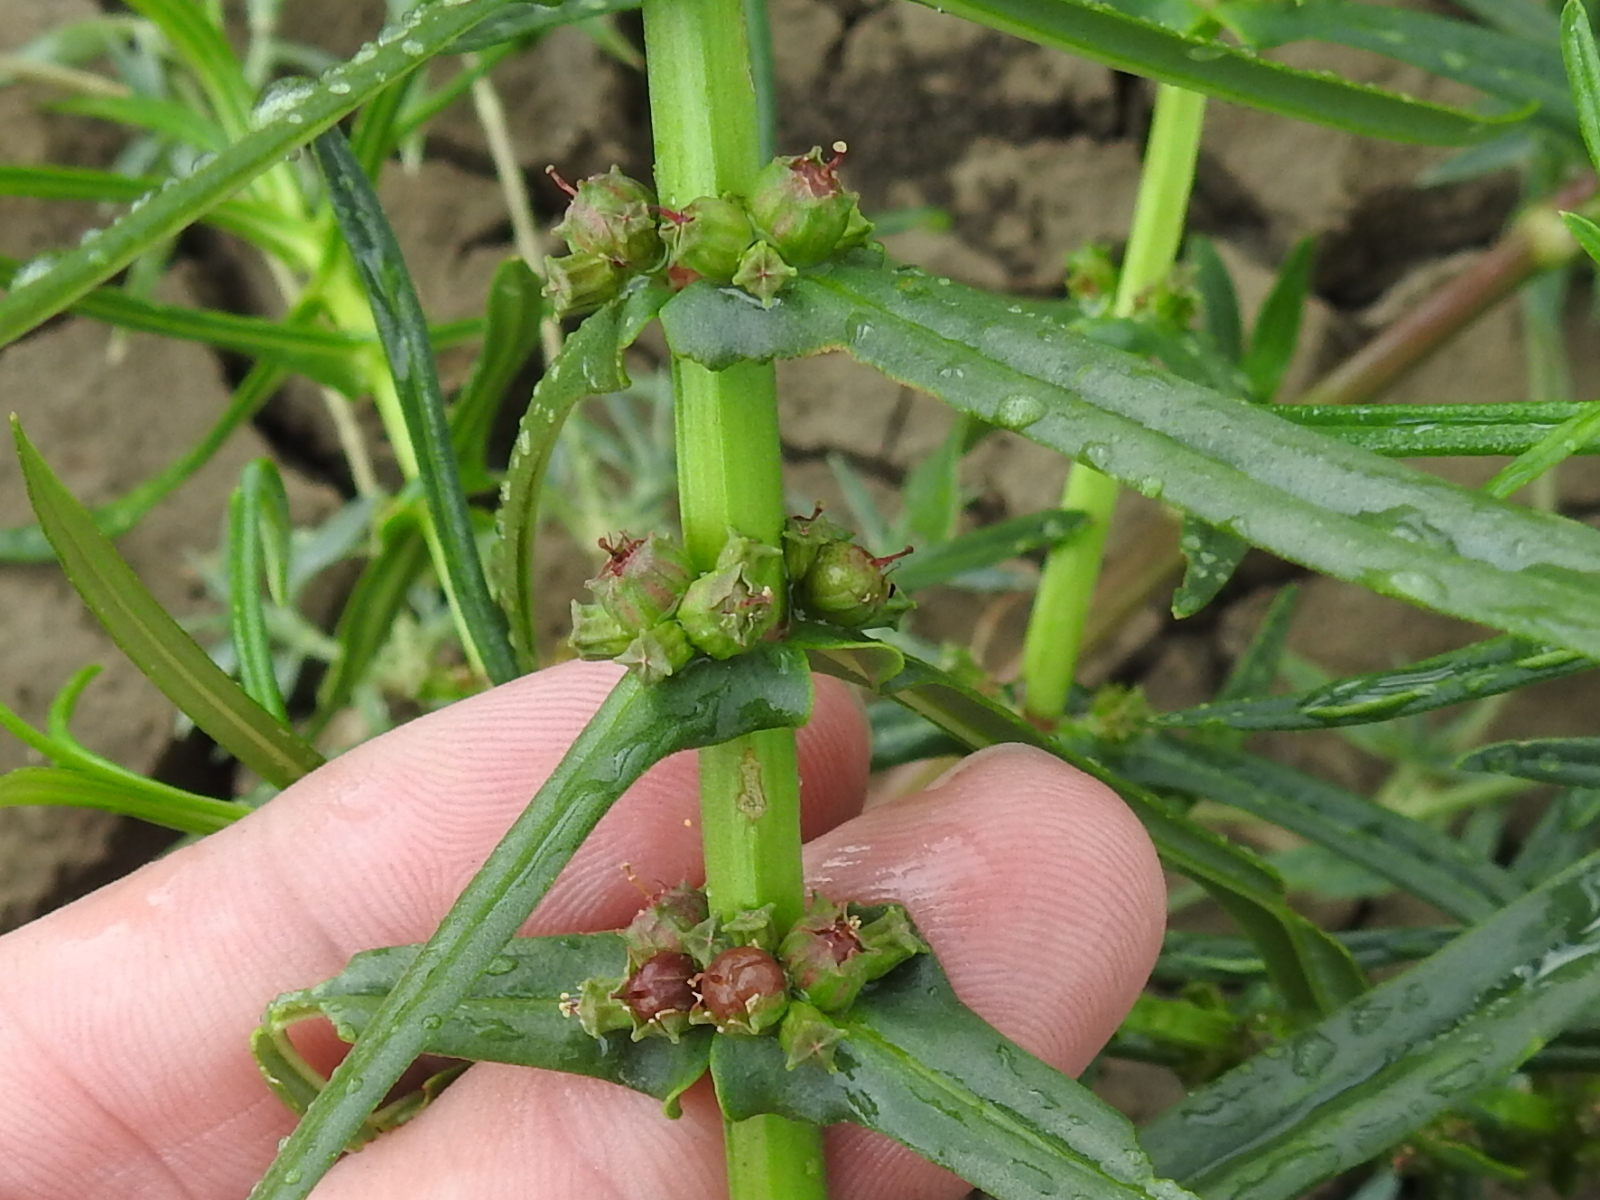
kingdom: Plantae
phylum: Tracheophyta
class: Magnoliopsida
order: Myrtales
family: Lythraceae
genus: Ammannia
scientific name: Ammannia coccinea
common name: Valley redstem
